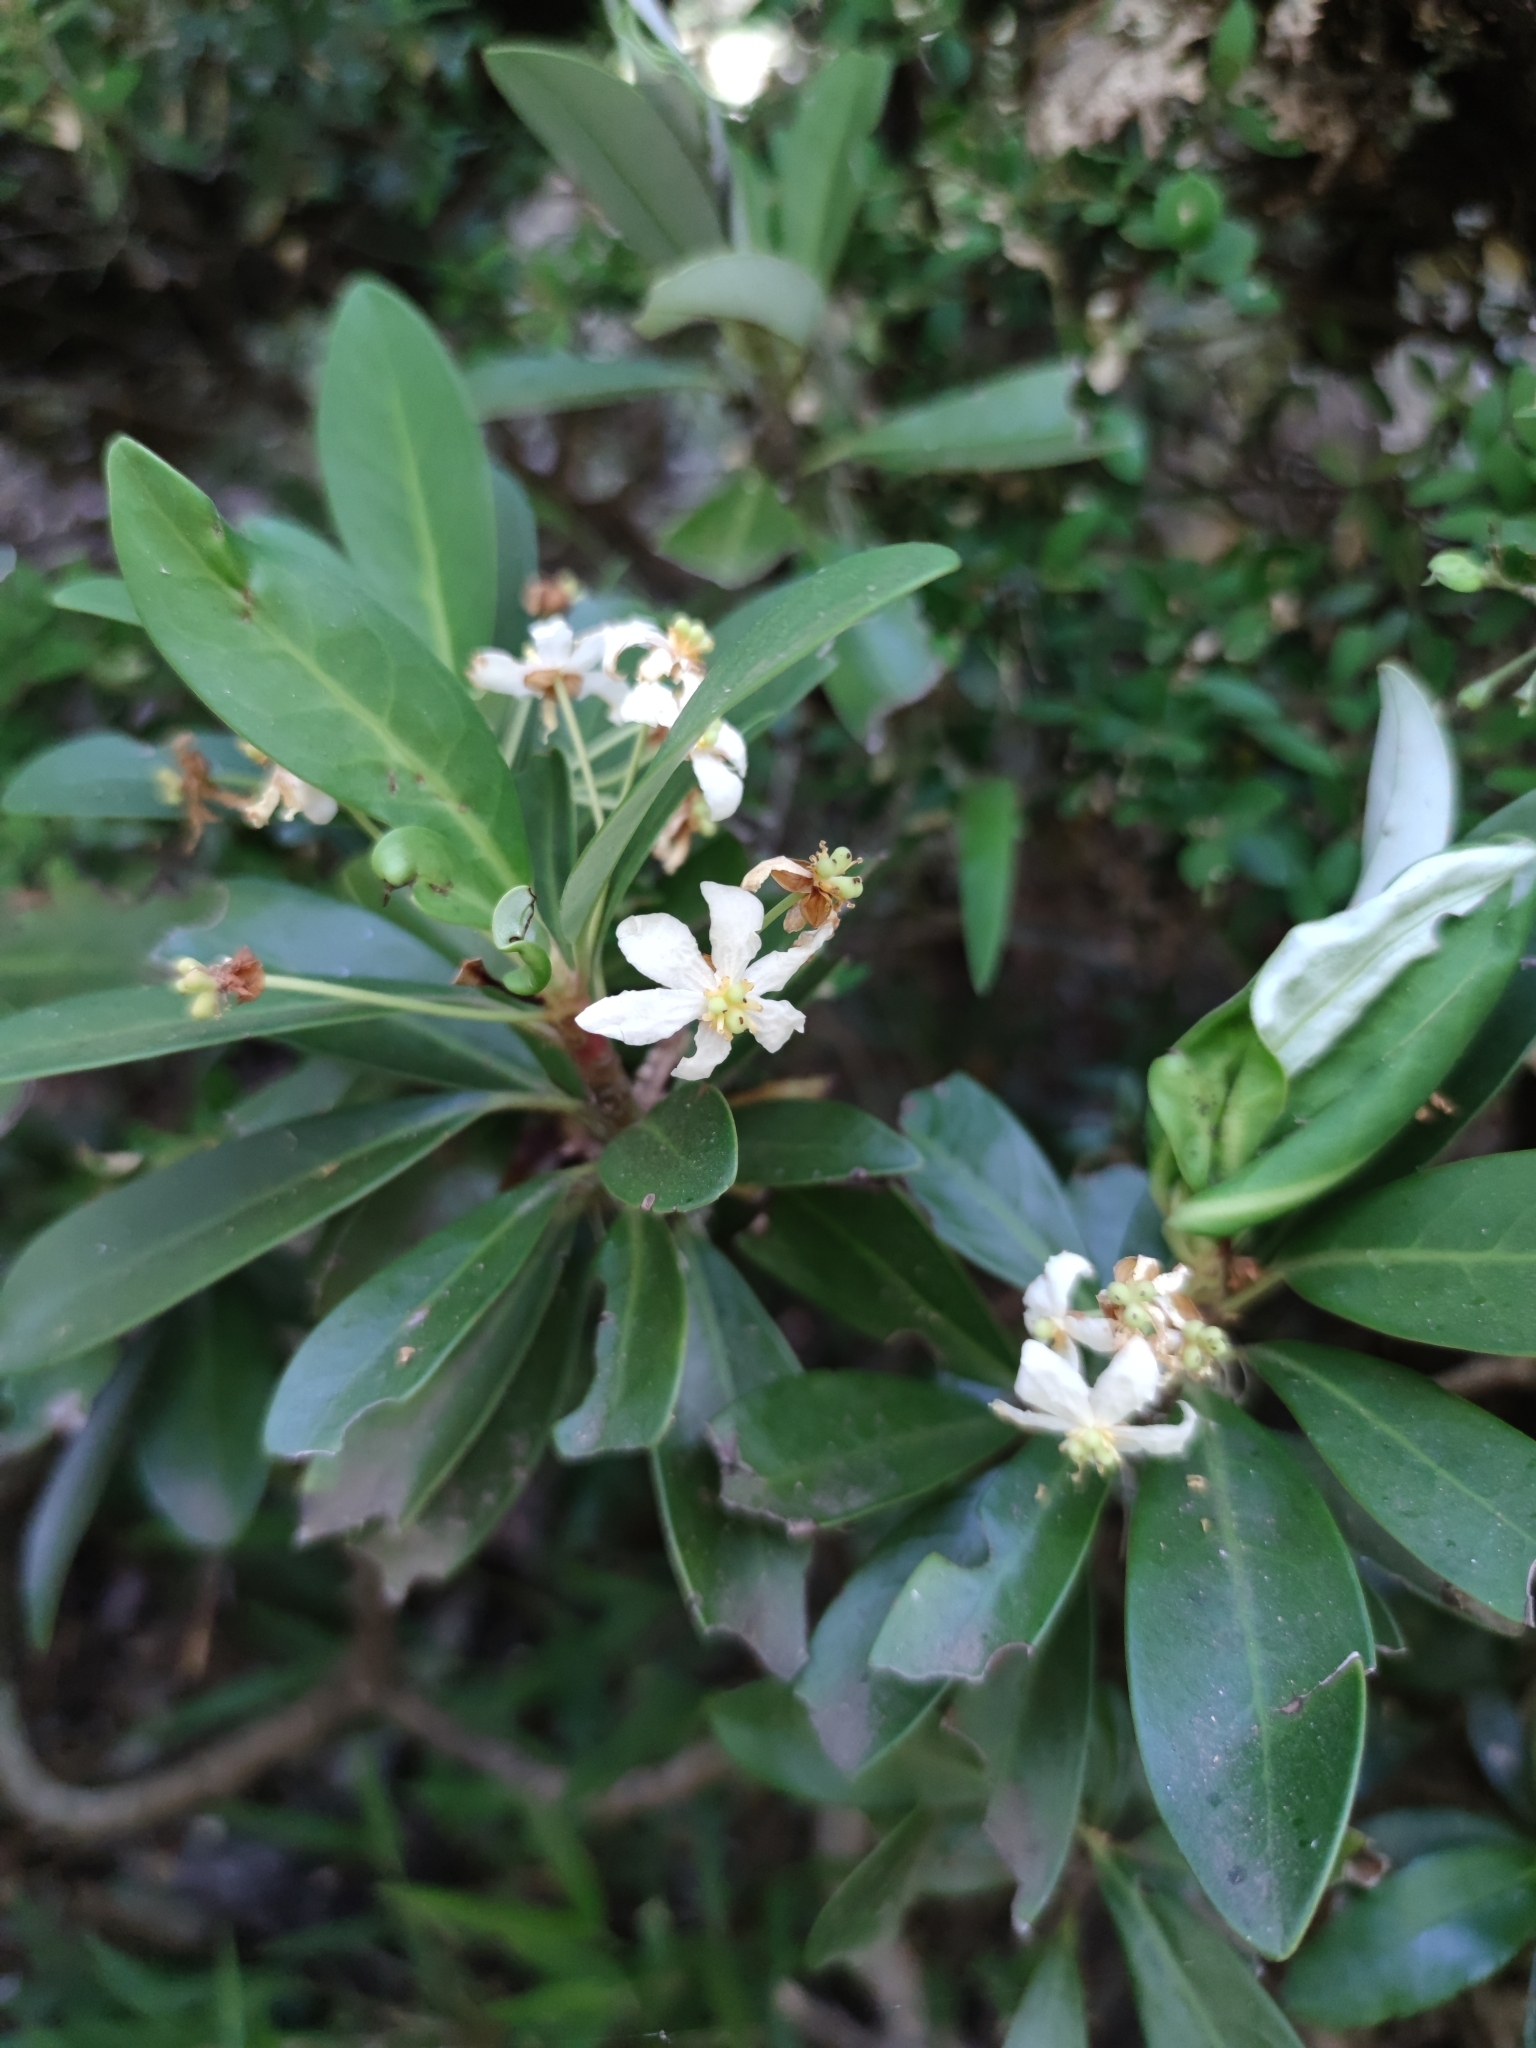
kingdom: Plantae
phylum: Tracheophyta
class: Magnoliopsida
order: Canellales
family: Winteraceae
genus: Drimys
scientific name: Drimys andina
